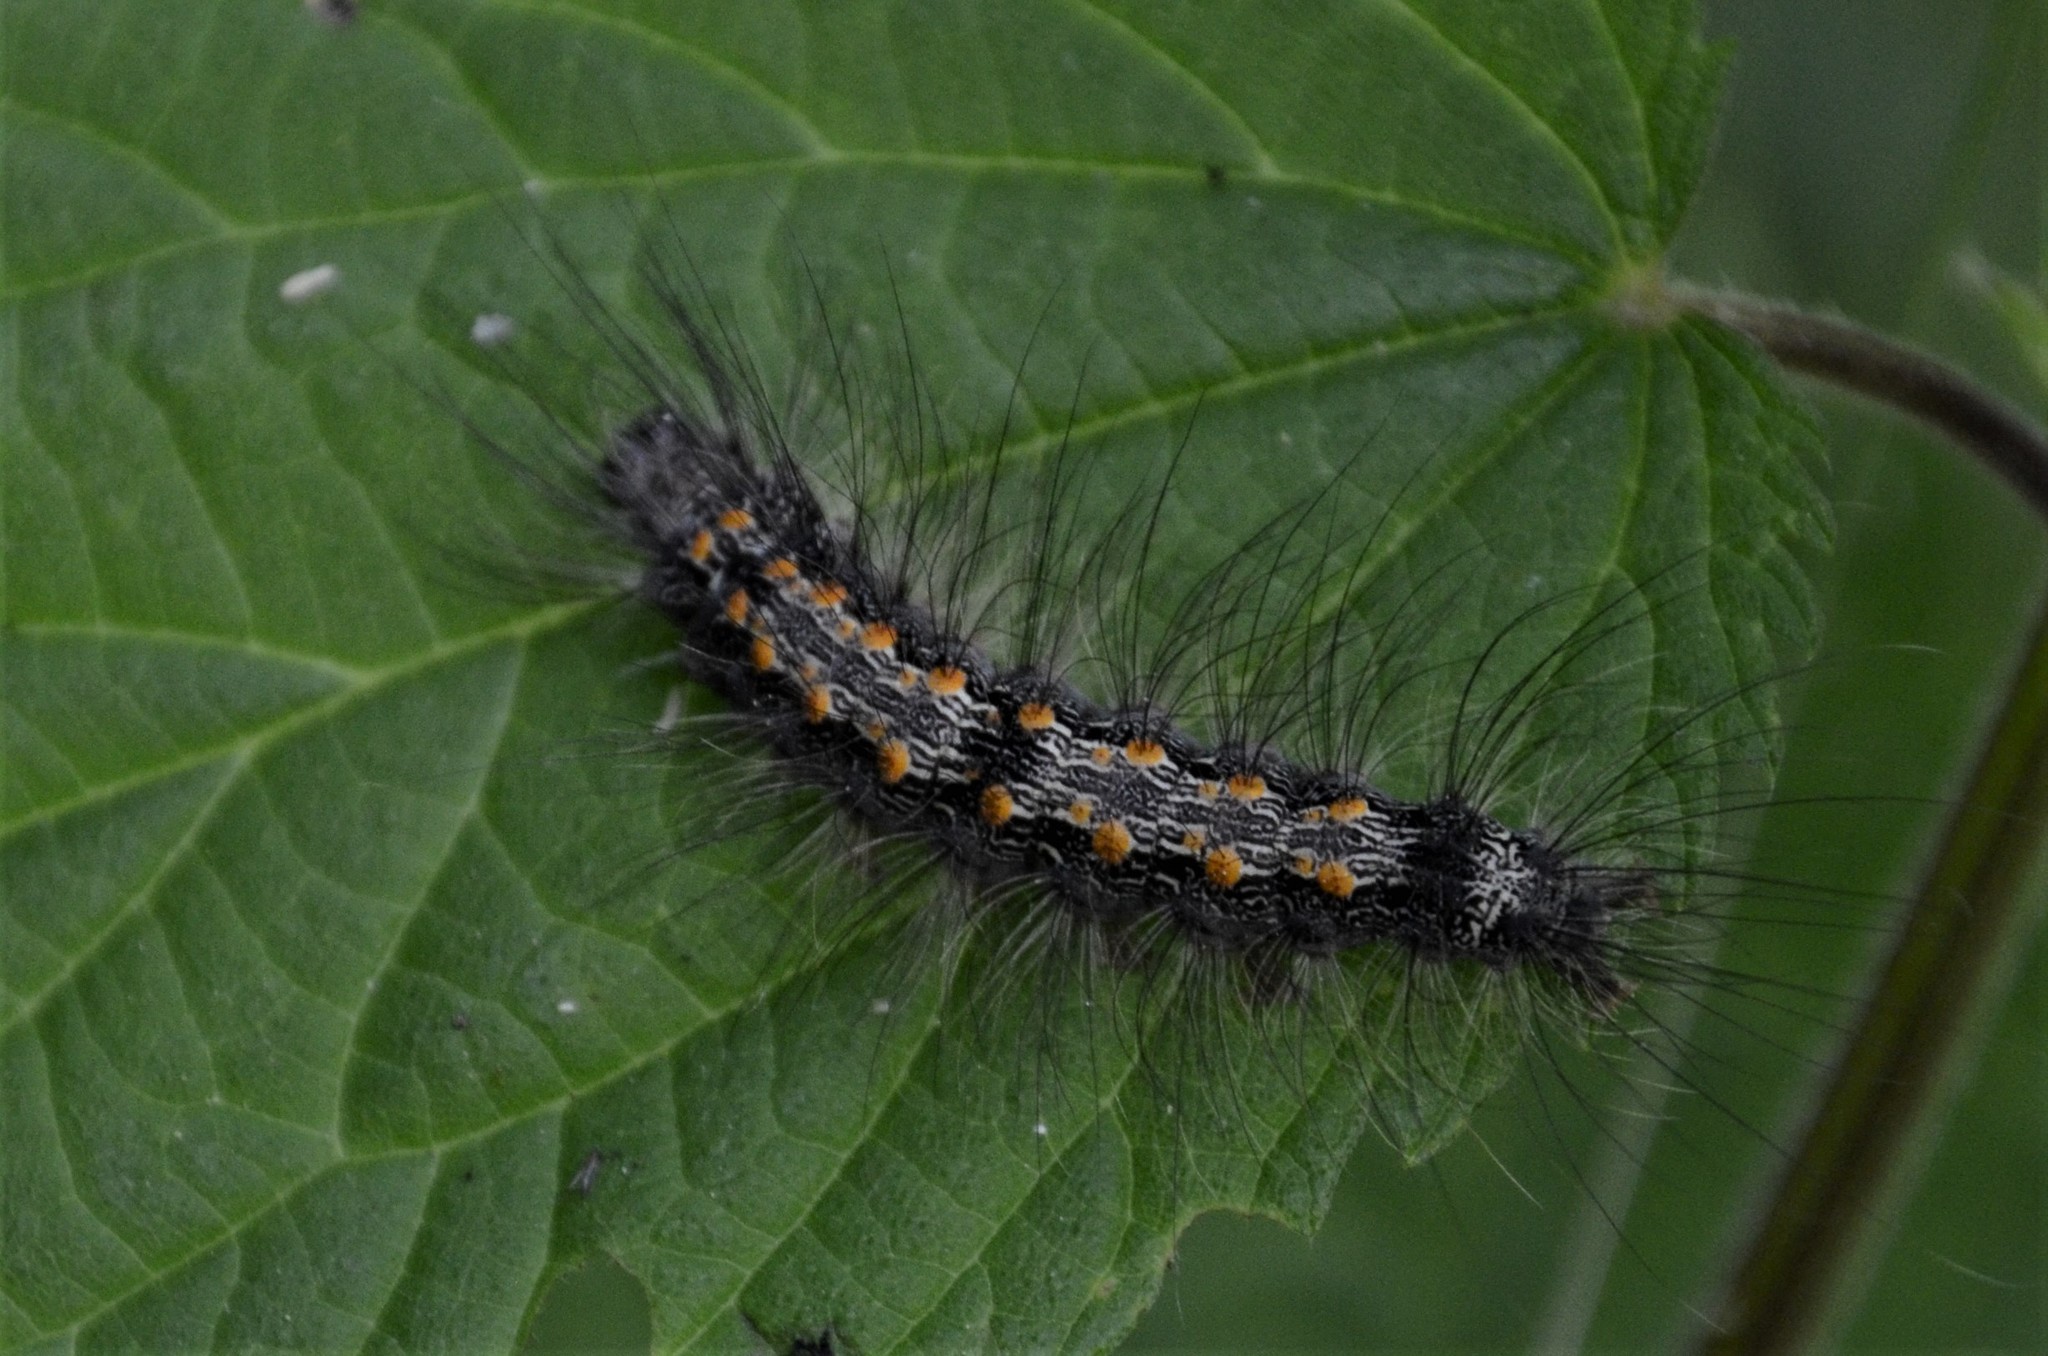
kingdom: Animalia
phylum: Arthropoda
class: Insecta
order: Lepidoptera
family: Erebidae
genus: Lithosia
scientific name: Lithosia quadra
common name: Four-spotted footman
